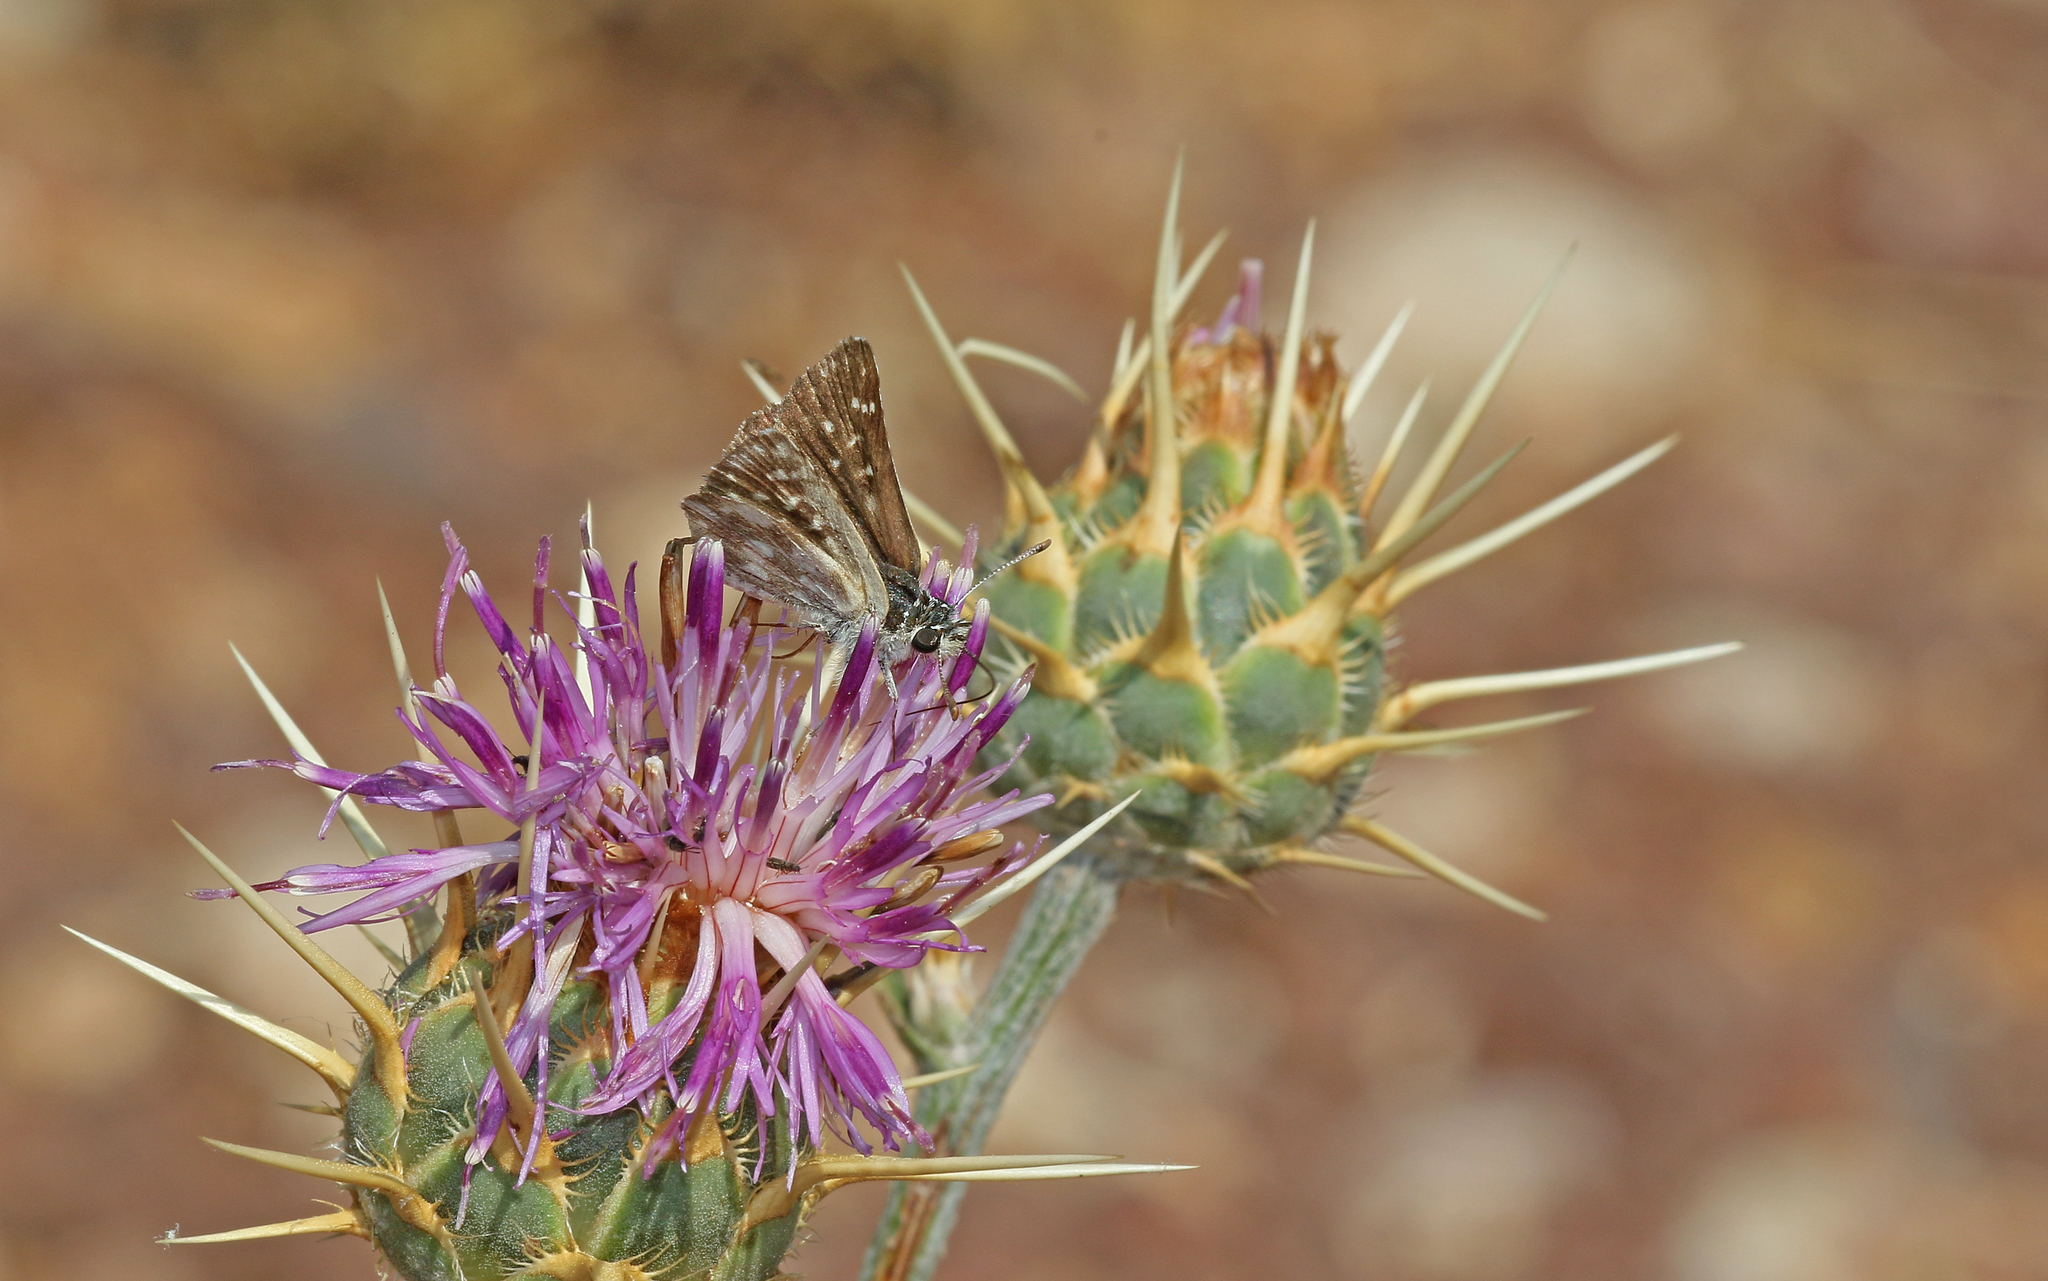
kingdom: Animalia
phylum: Arthropoda
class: Insecta
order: Lepidoptera
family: Hesperiidae
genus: Spialia
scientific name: Spialia sertorius
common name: Red underwing skipper
